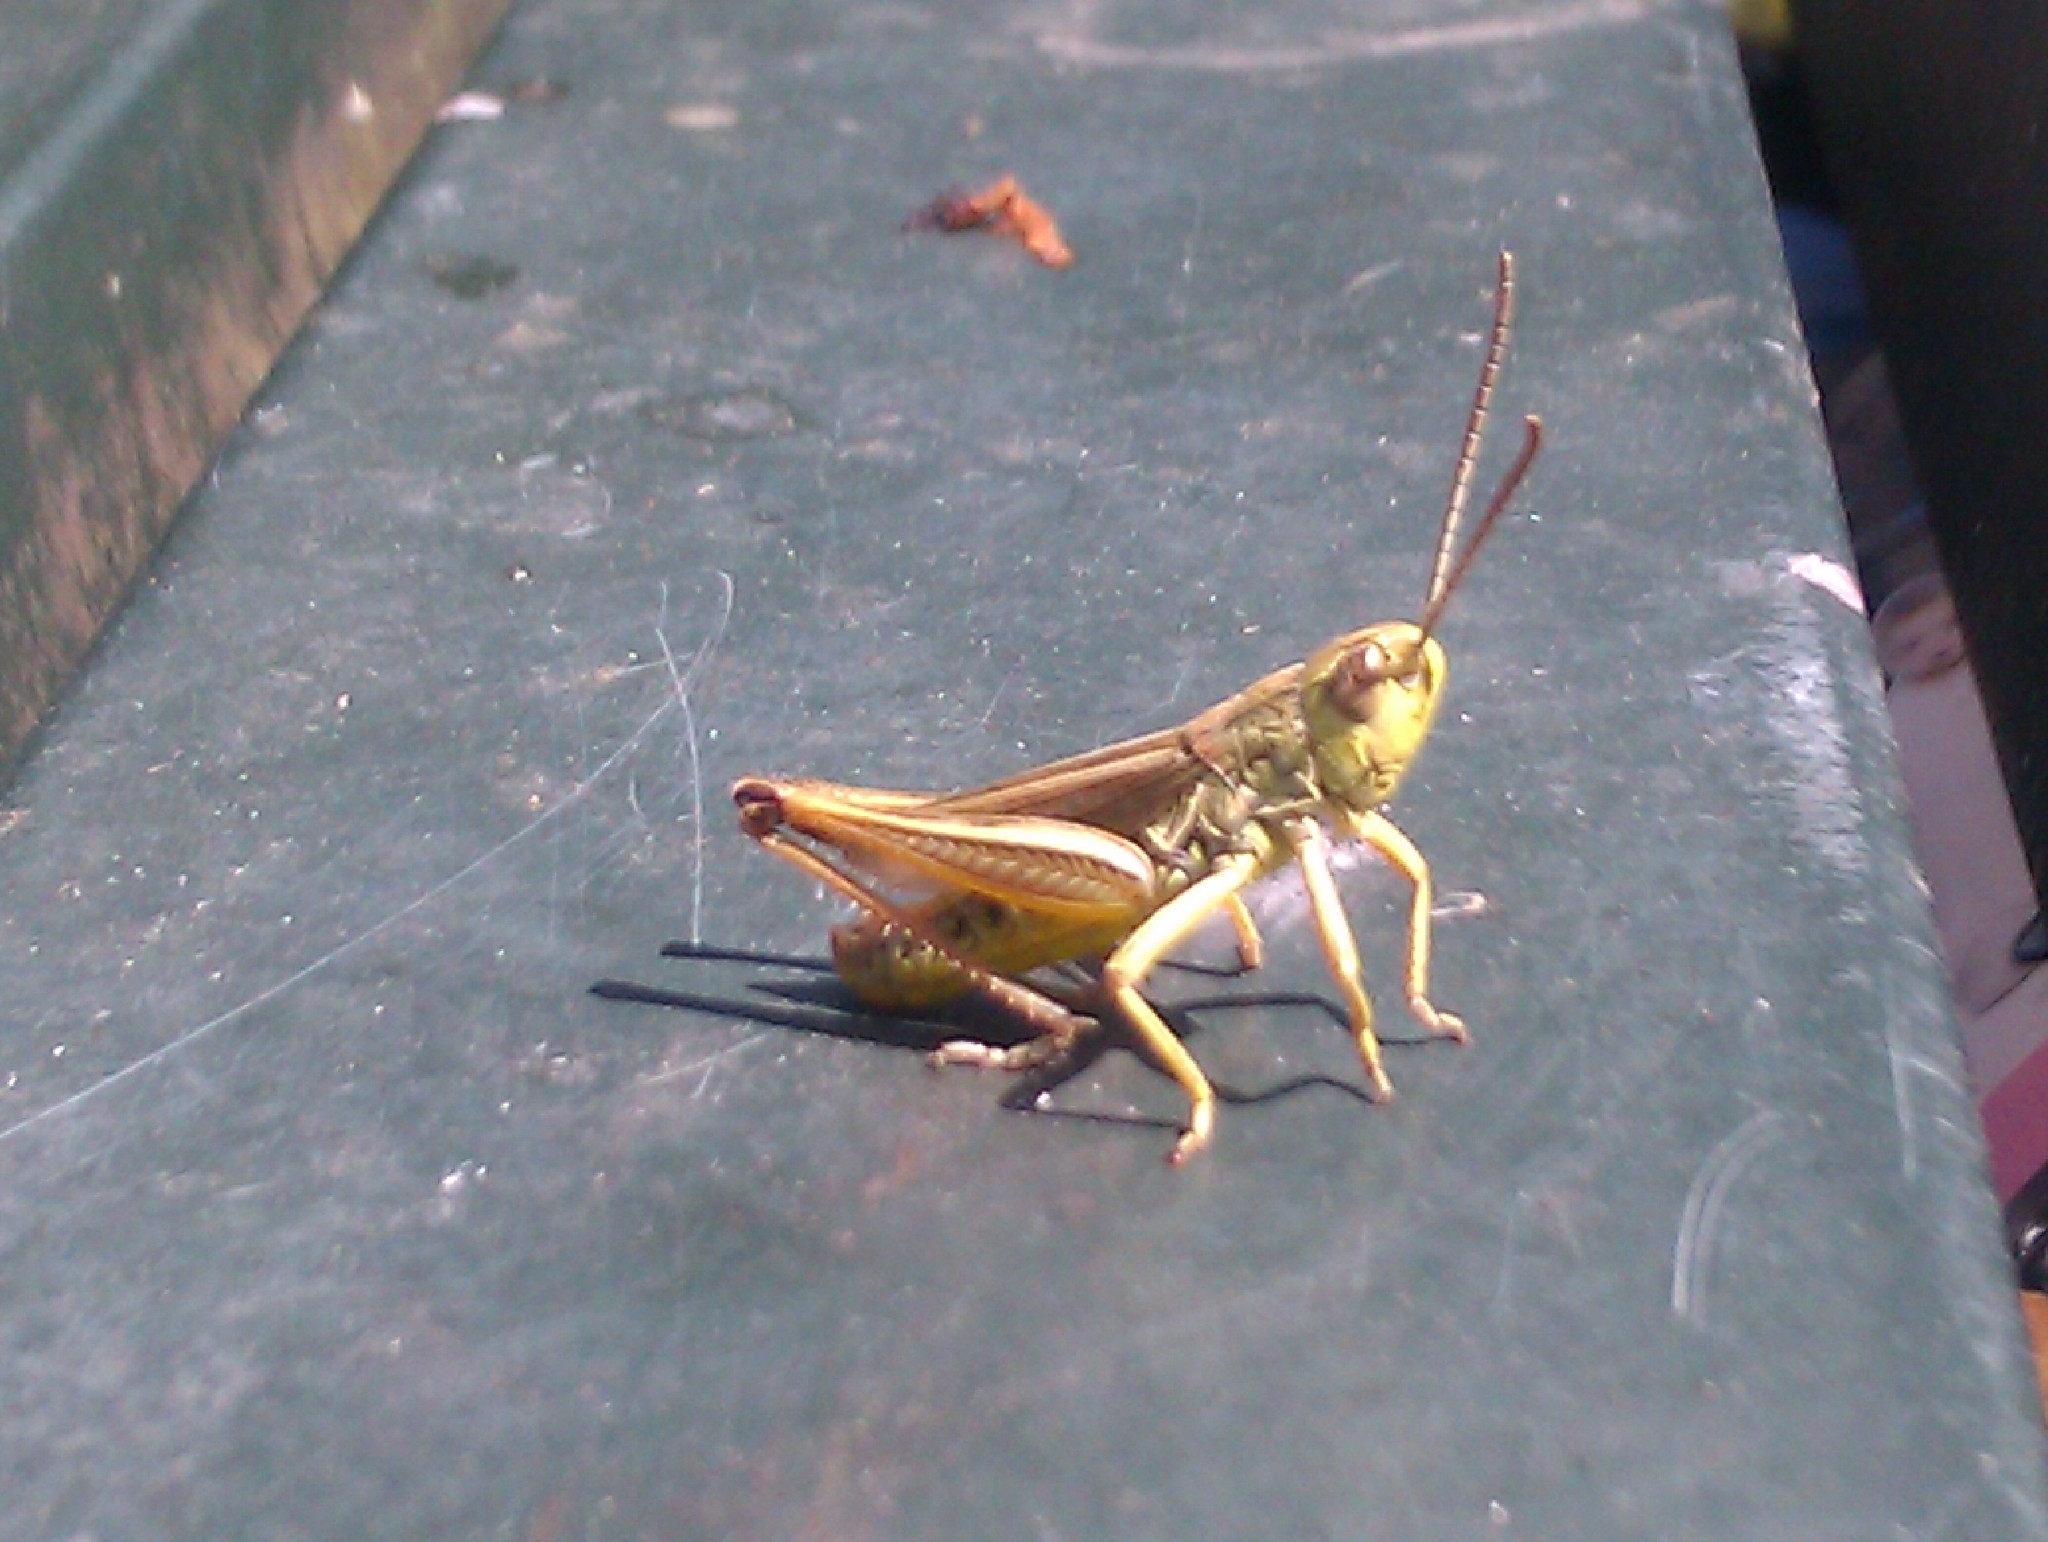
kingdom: Animalia
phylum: Arthropoda
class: Insecta
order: Orthoptera
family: Acrididae
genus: Pseudochorthippus
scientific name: Pseudochorthippus parallelus
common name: Meadow grasshopper
